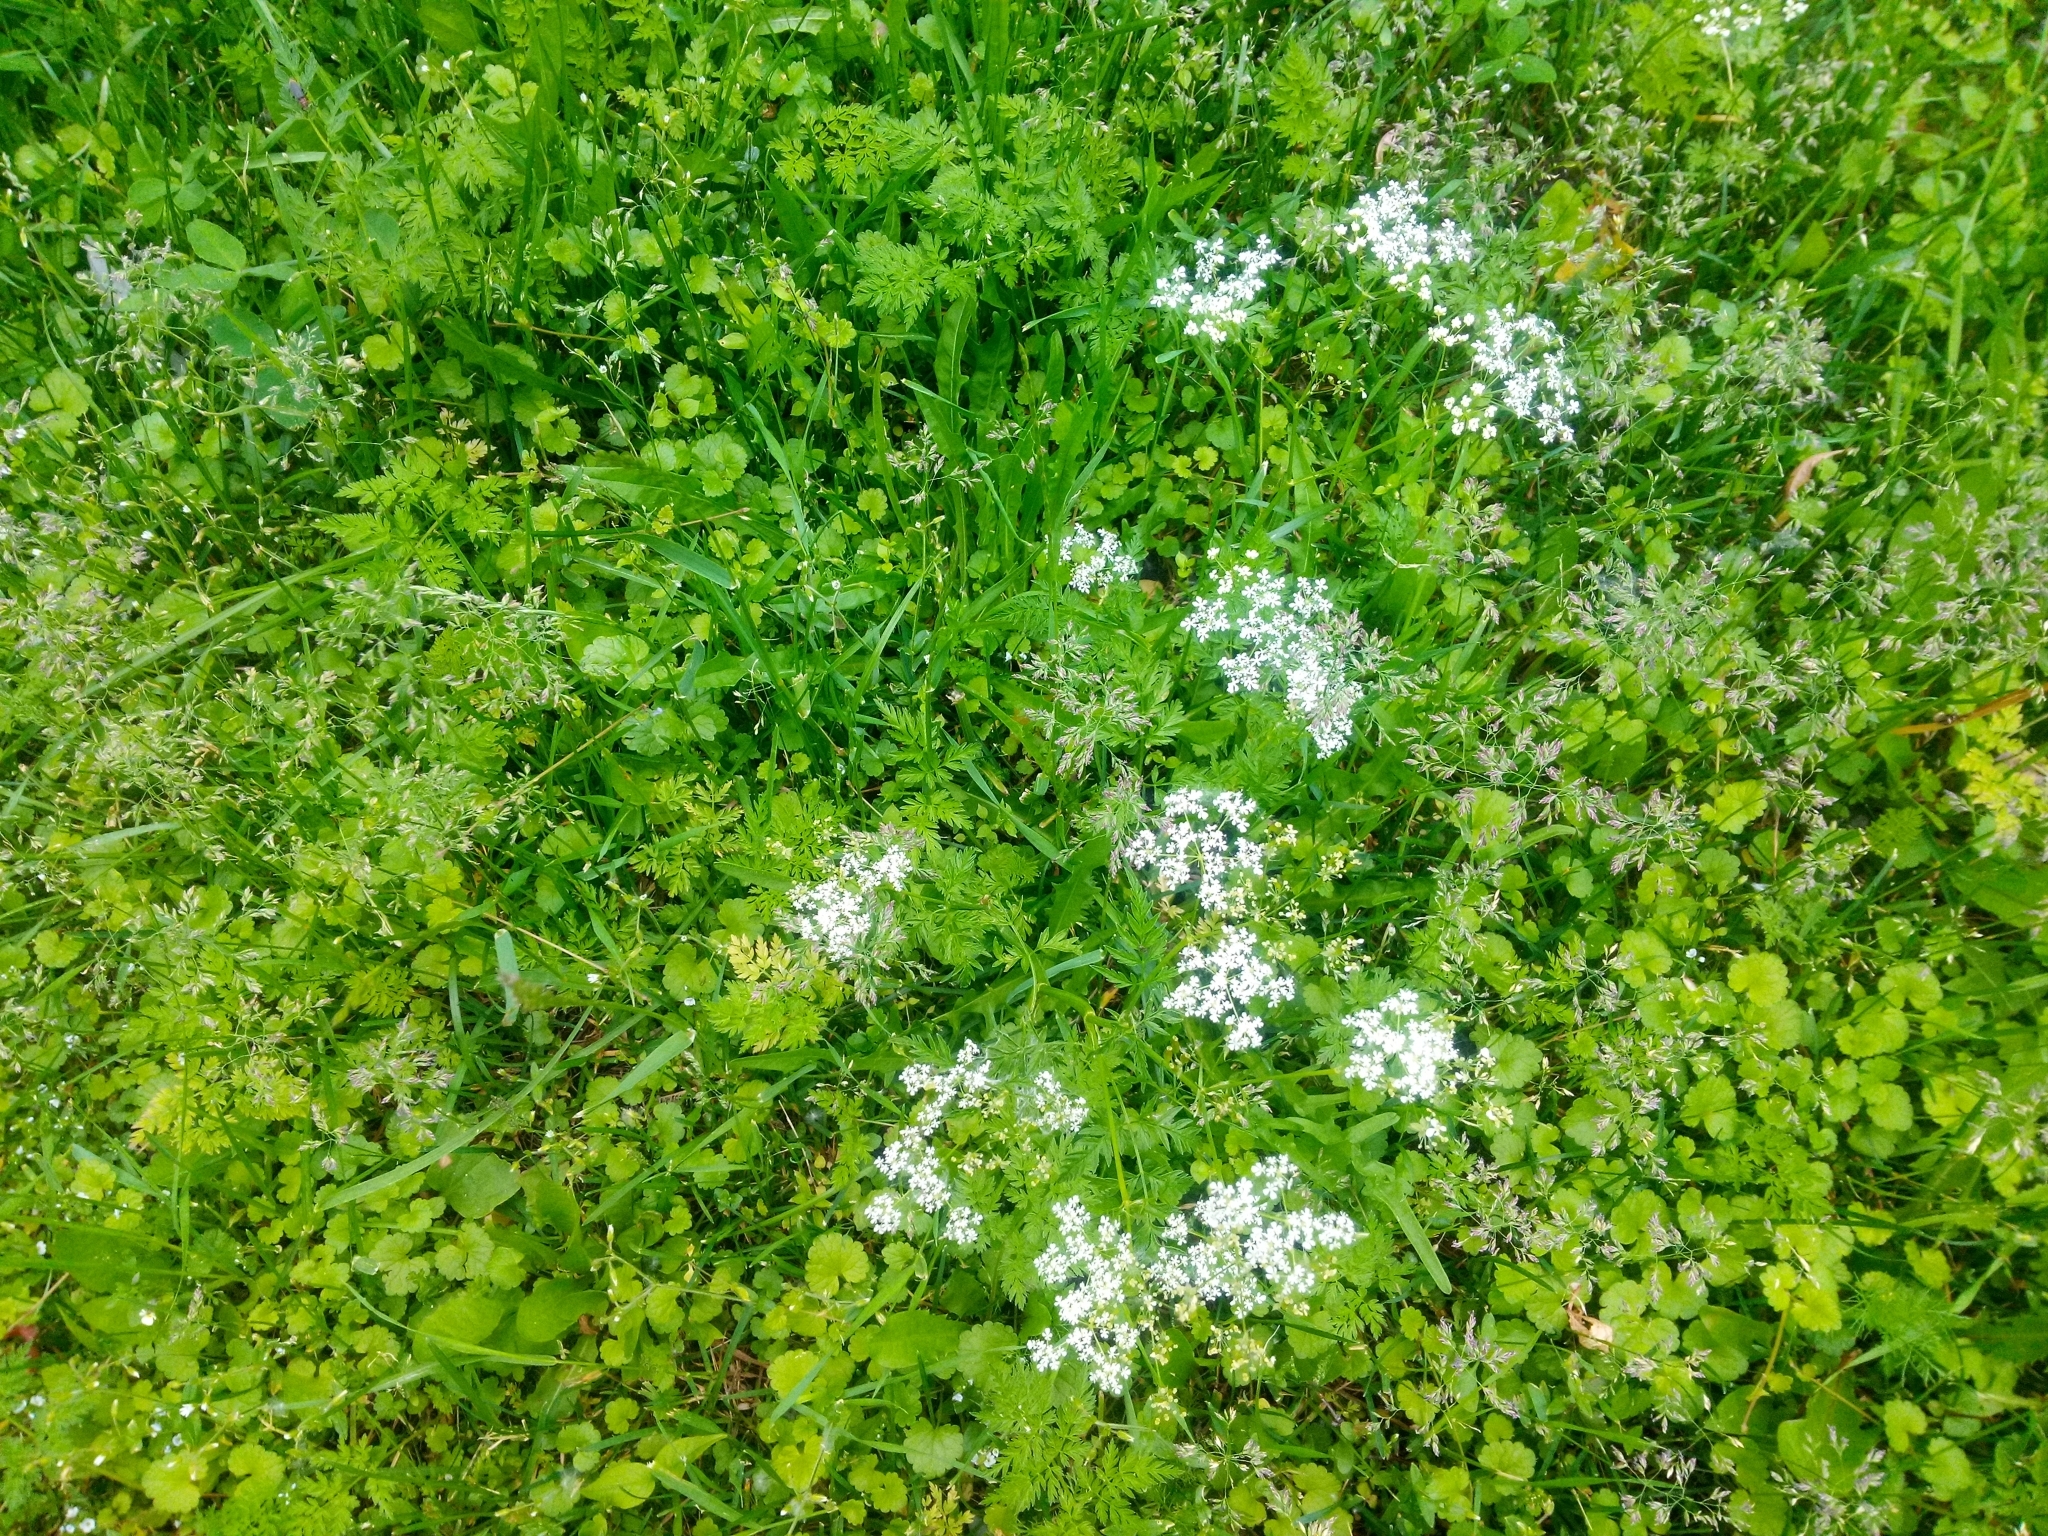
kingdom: Plantae
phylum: Tracheophyta
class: Magnoliopsida
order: Apiales
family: Apiaceae
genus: Anthriscus
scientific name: Anthriscus sylvestris
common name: Cow parsley
